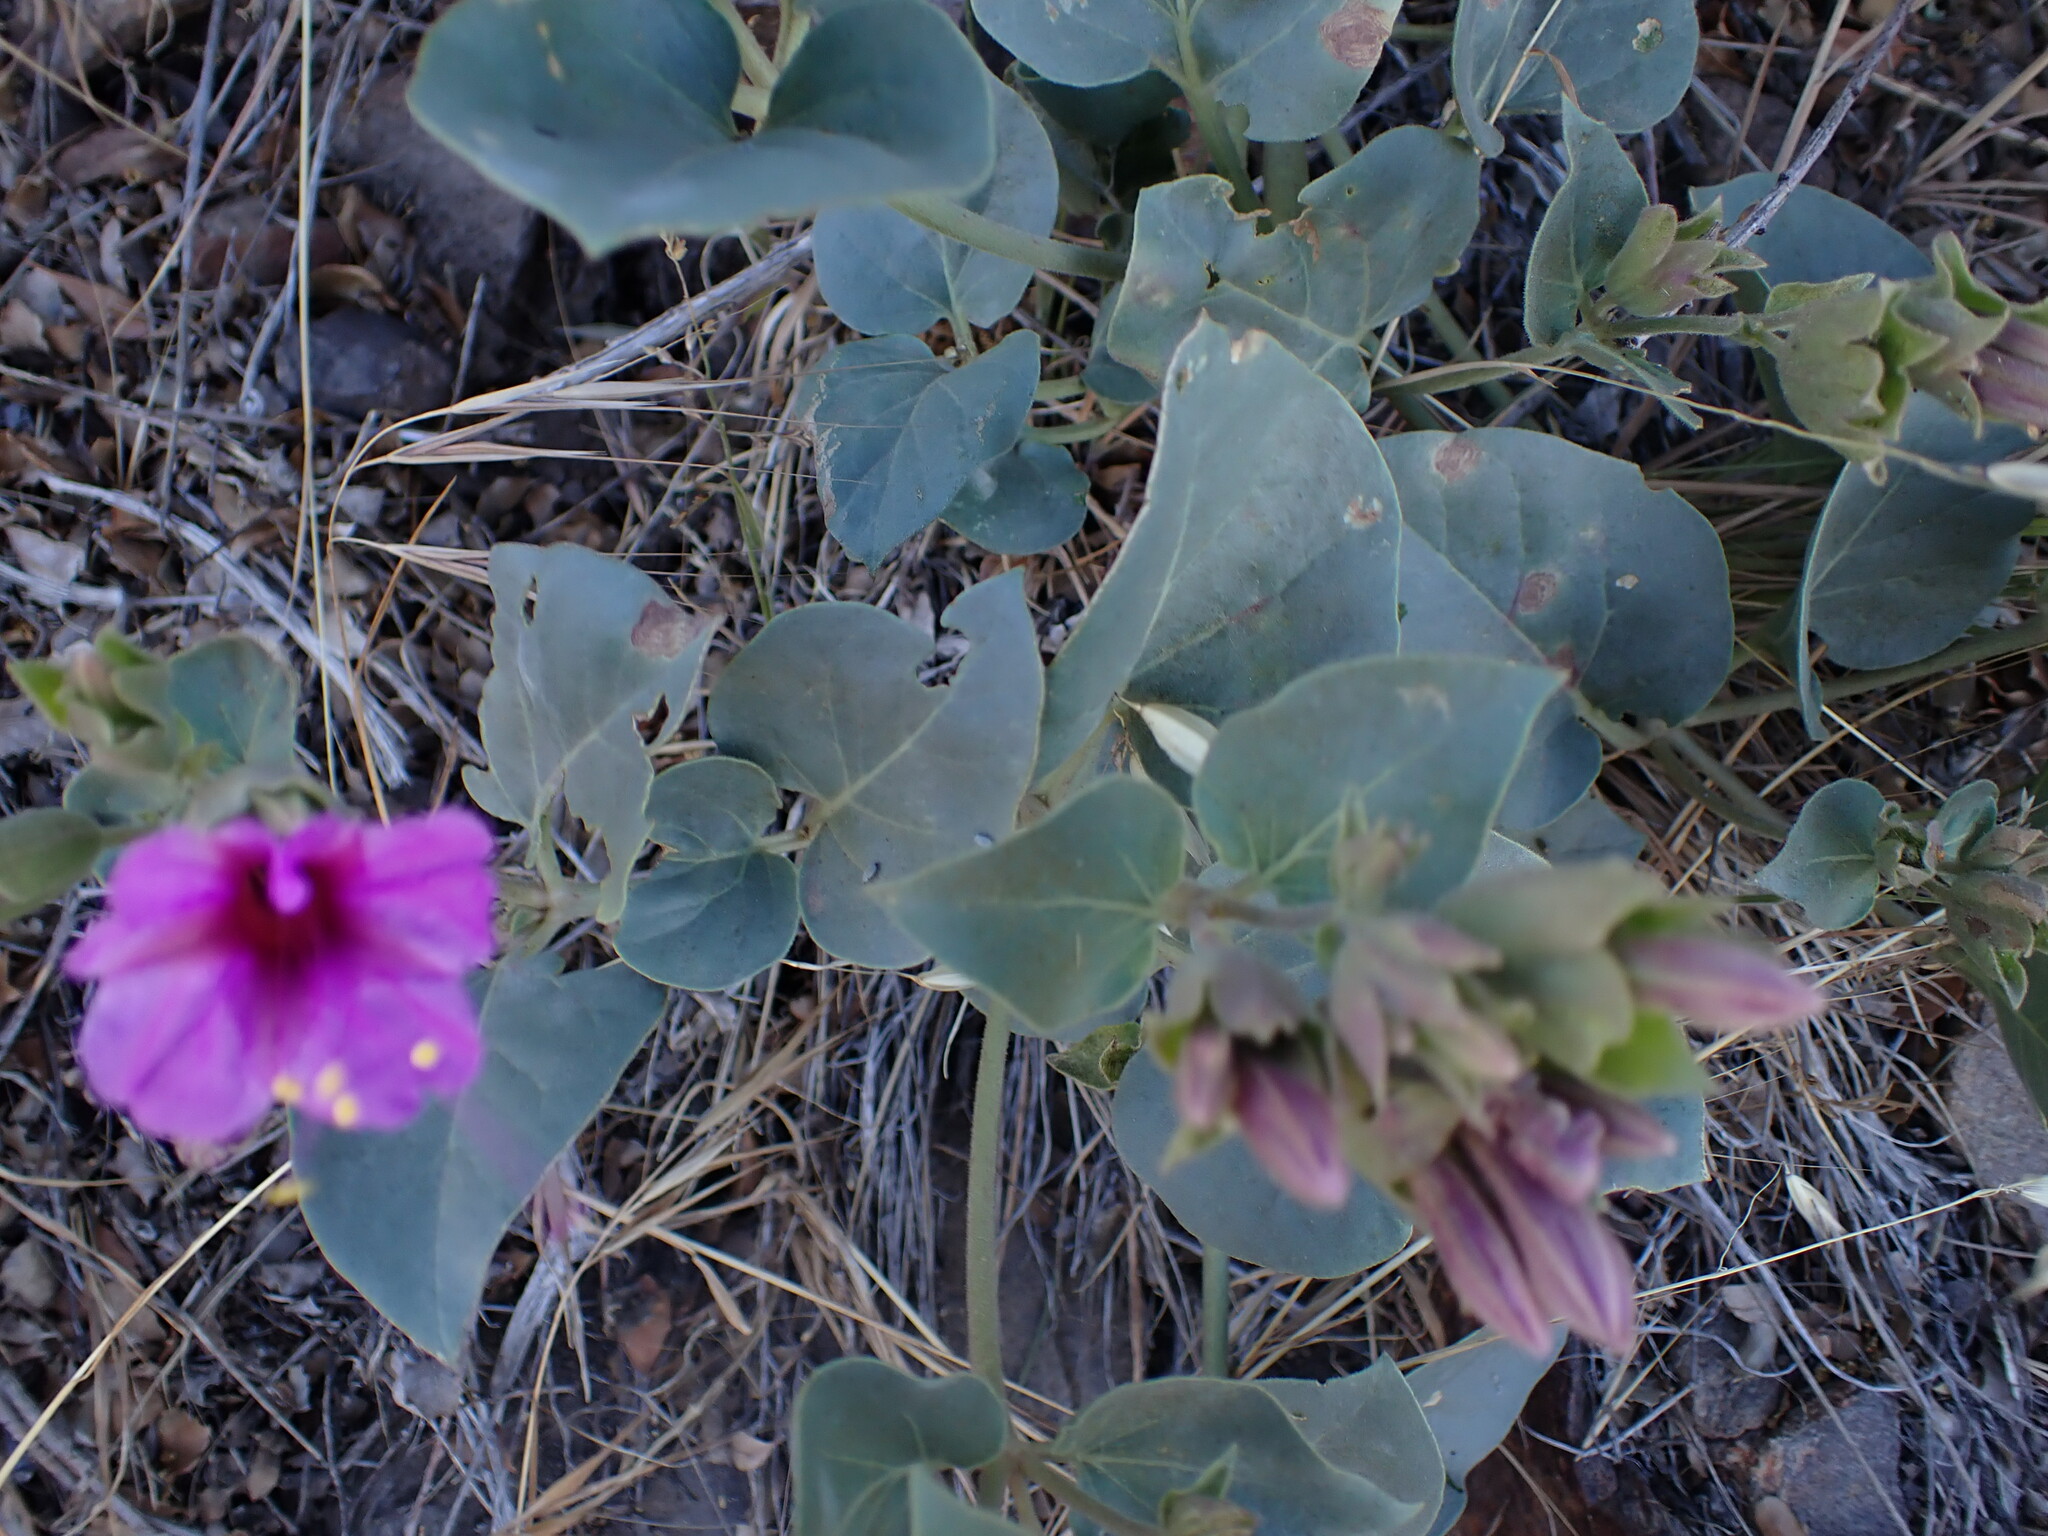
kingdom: Plantae
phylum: Tracheophyta
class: Magnoliopsida
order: Caryophyllales
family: Nyctaginaceae
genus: Mirabilis
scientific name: Mirabilis multiflora
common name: Froebel's four-o'clock
